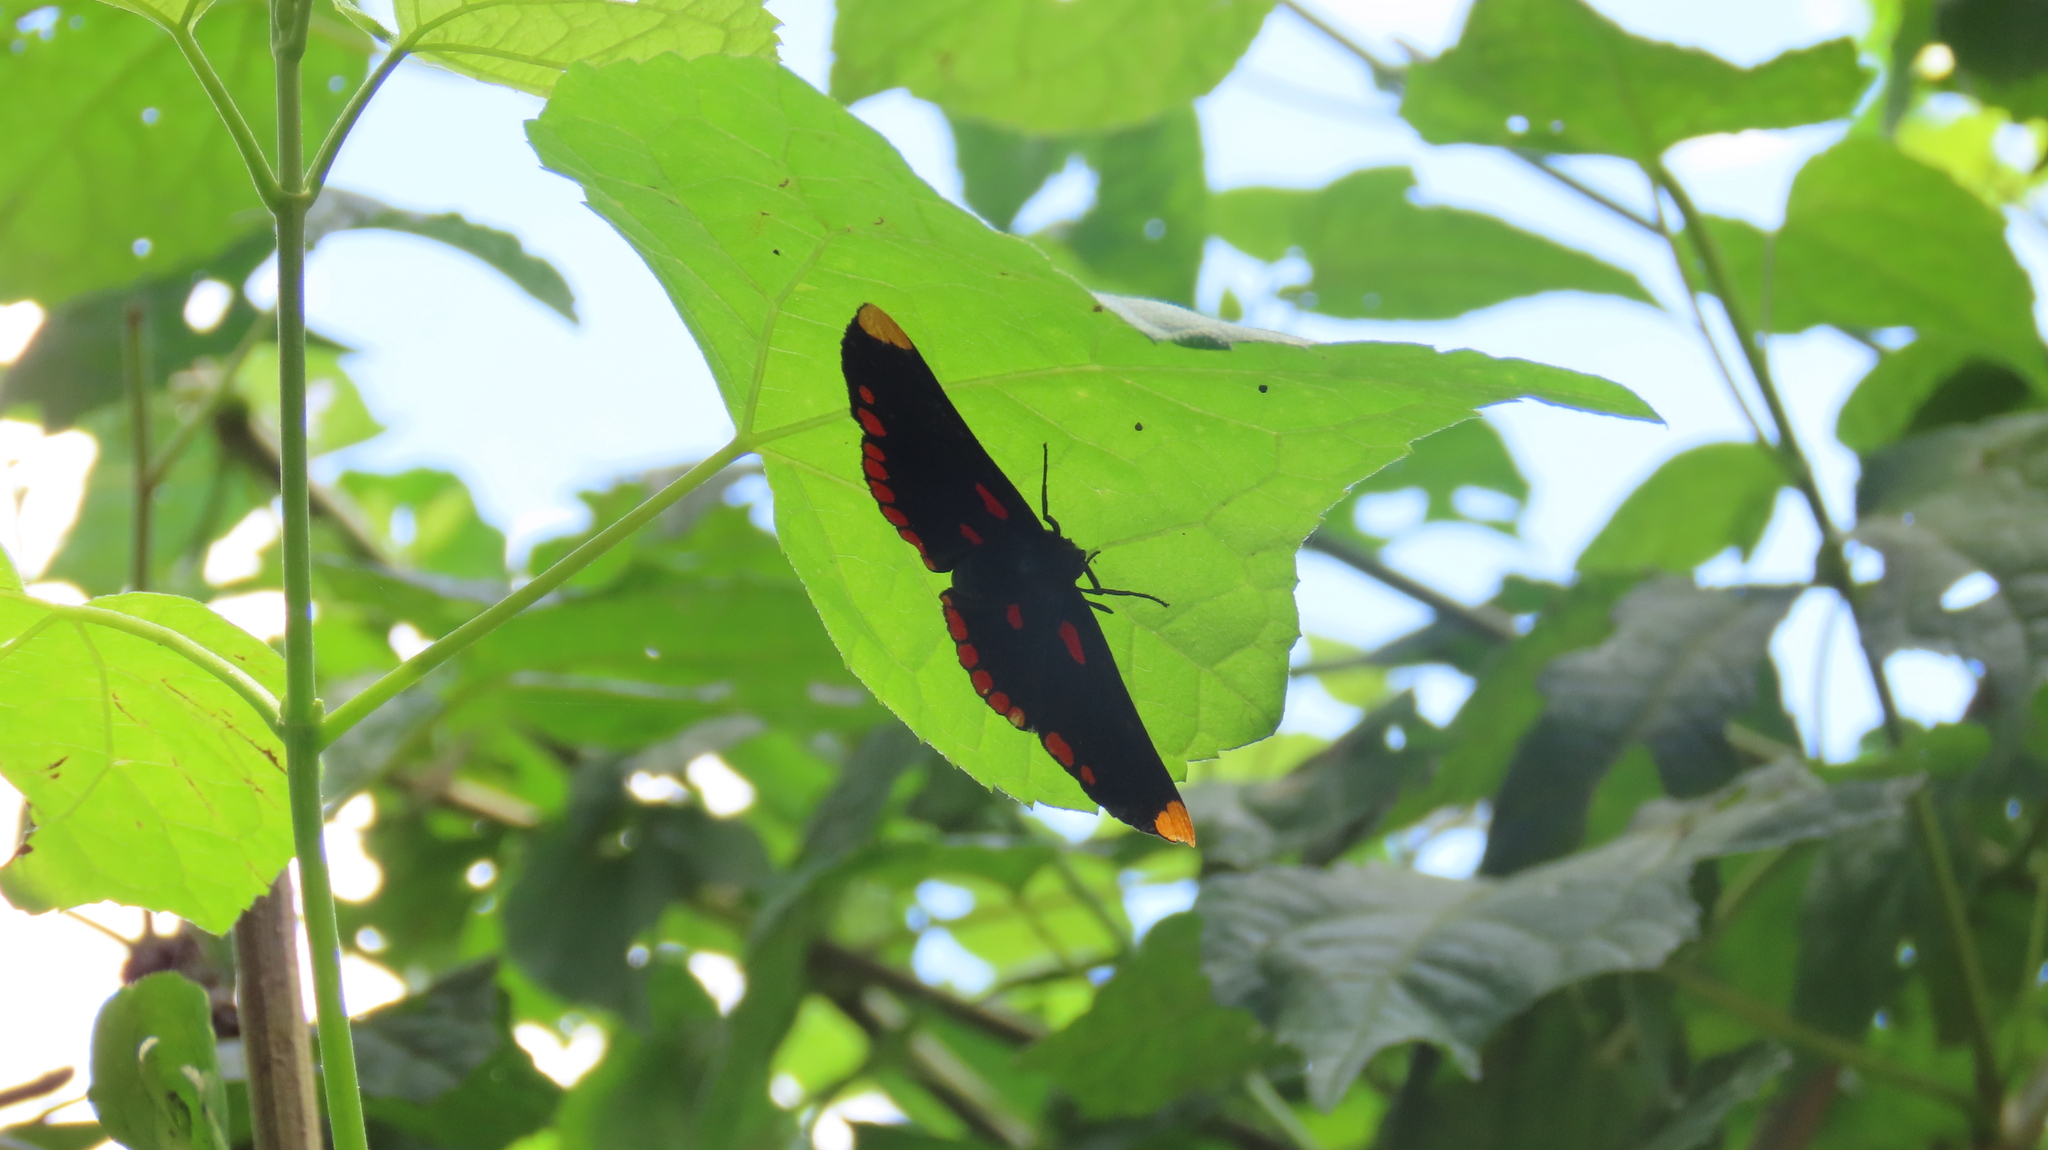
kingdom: Animalia
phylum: Arthropoda
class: Insecta
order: Lepidoptera
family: Lycaenidae
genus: Melanis
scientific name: Melanis pixe
